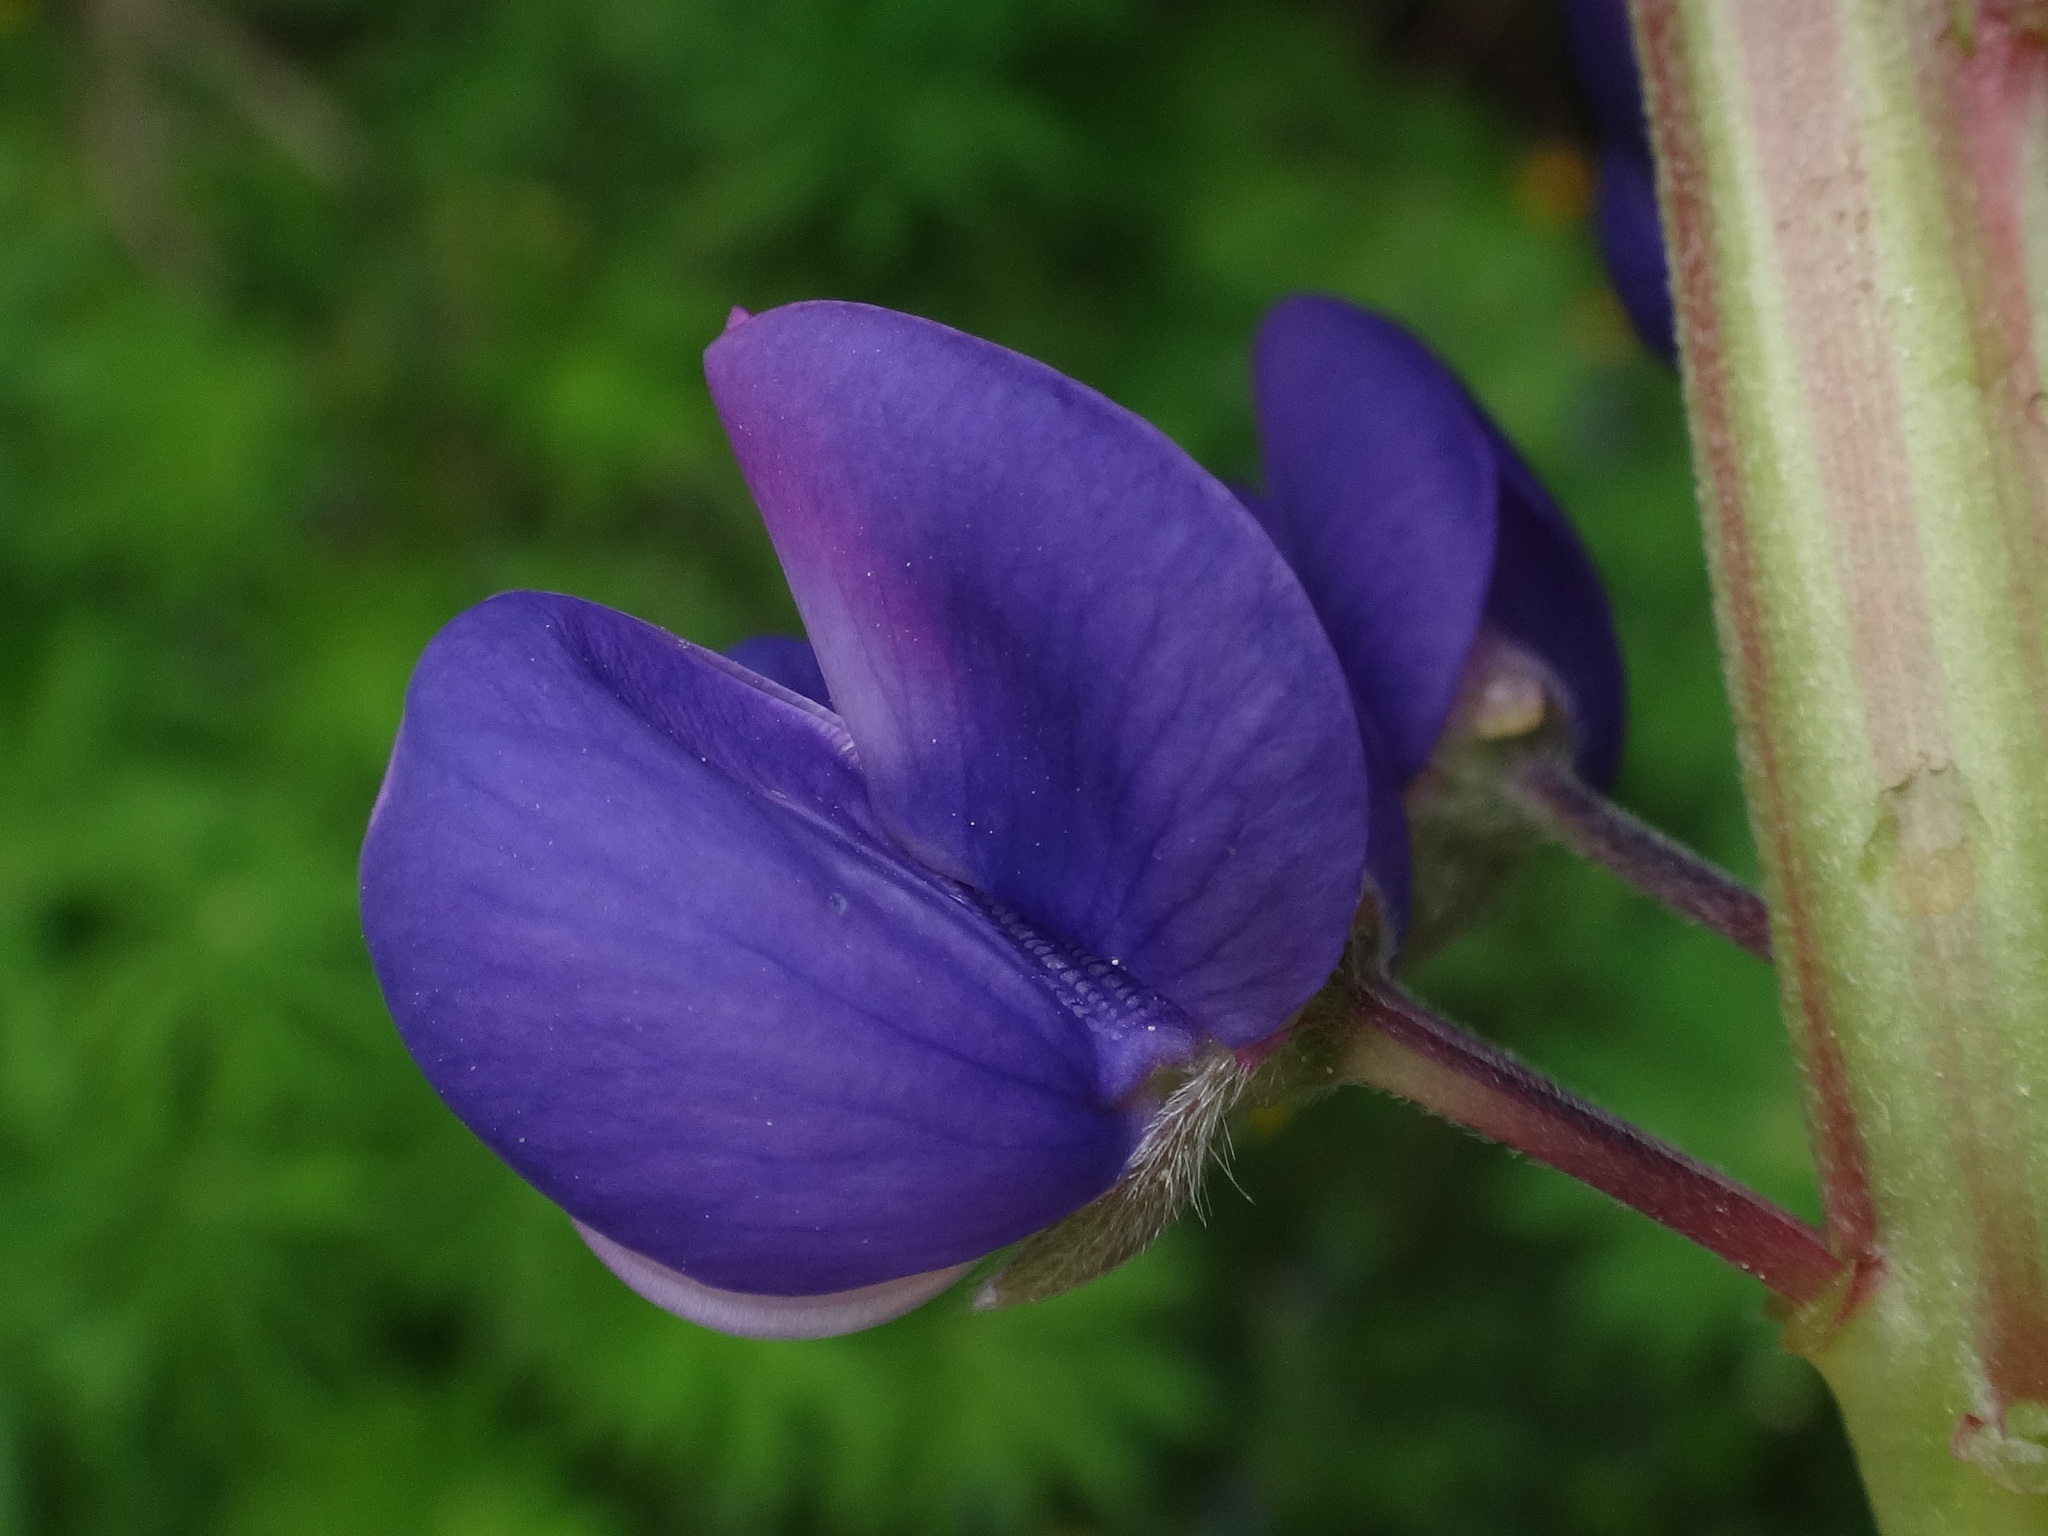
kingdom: Plantae
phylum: Tracheophyta
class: Magnoliopsida
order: Fabales
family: Fabaceae
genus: Lupinus
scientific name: Lupinus polyphyllus
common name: Garden lupin
